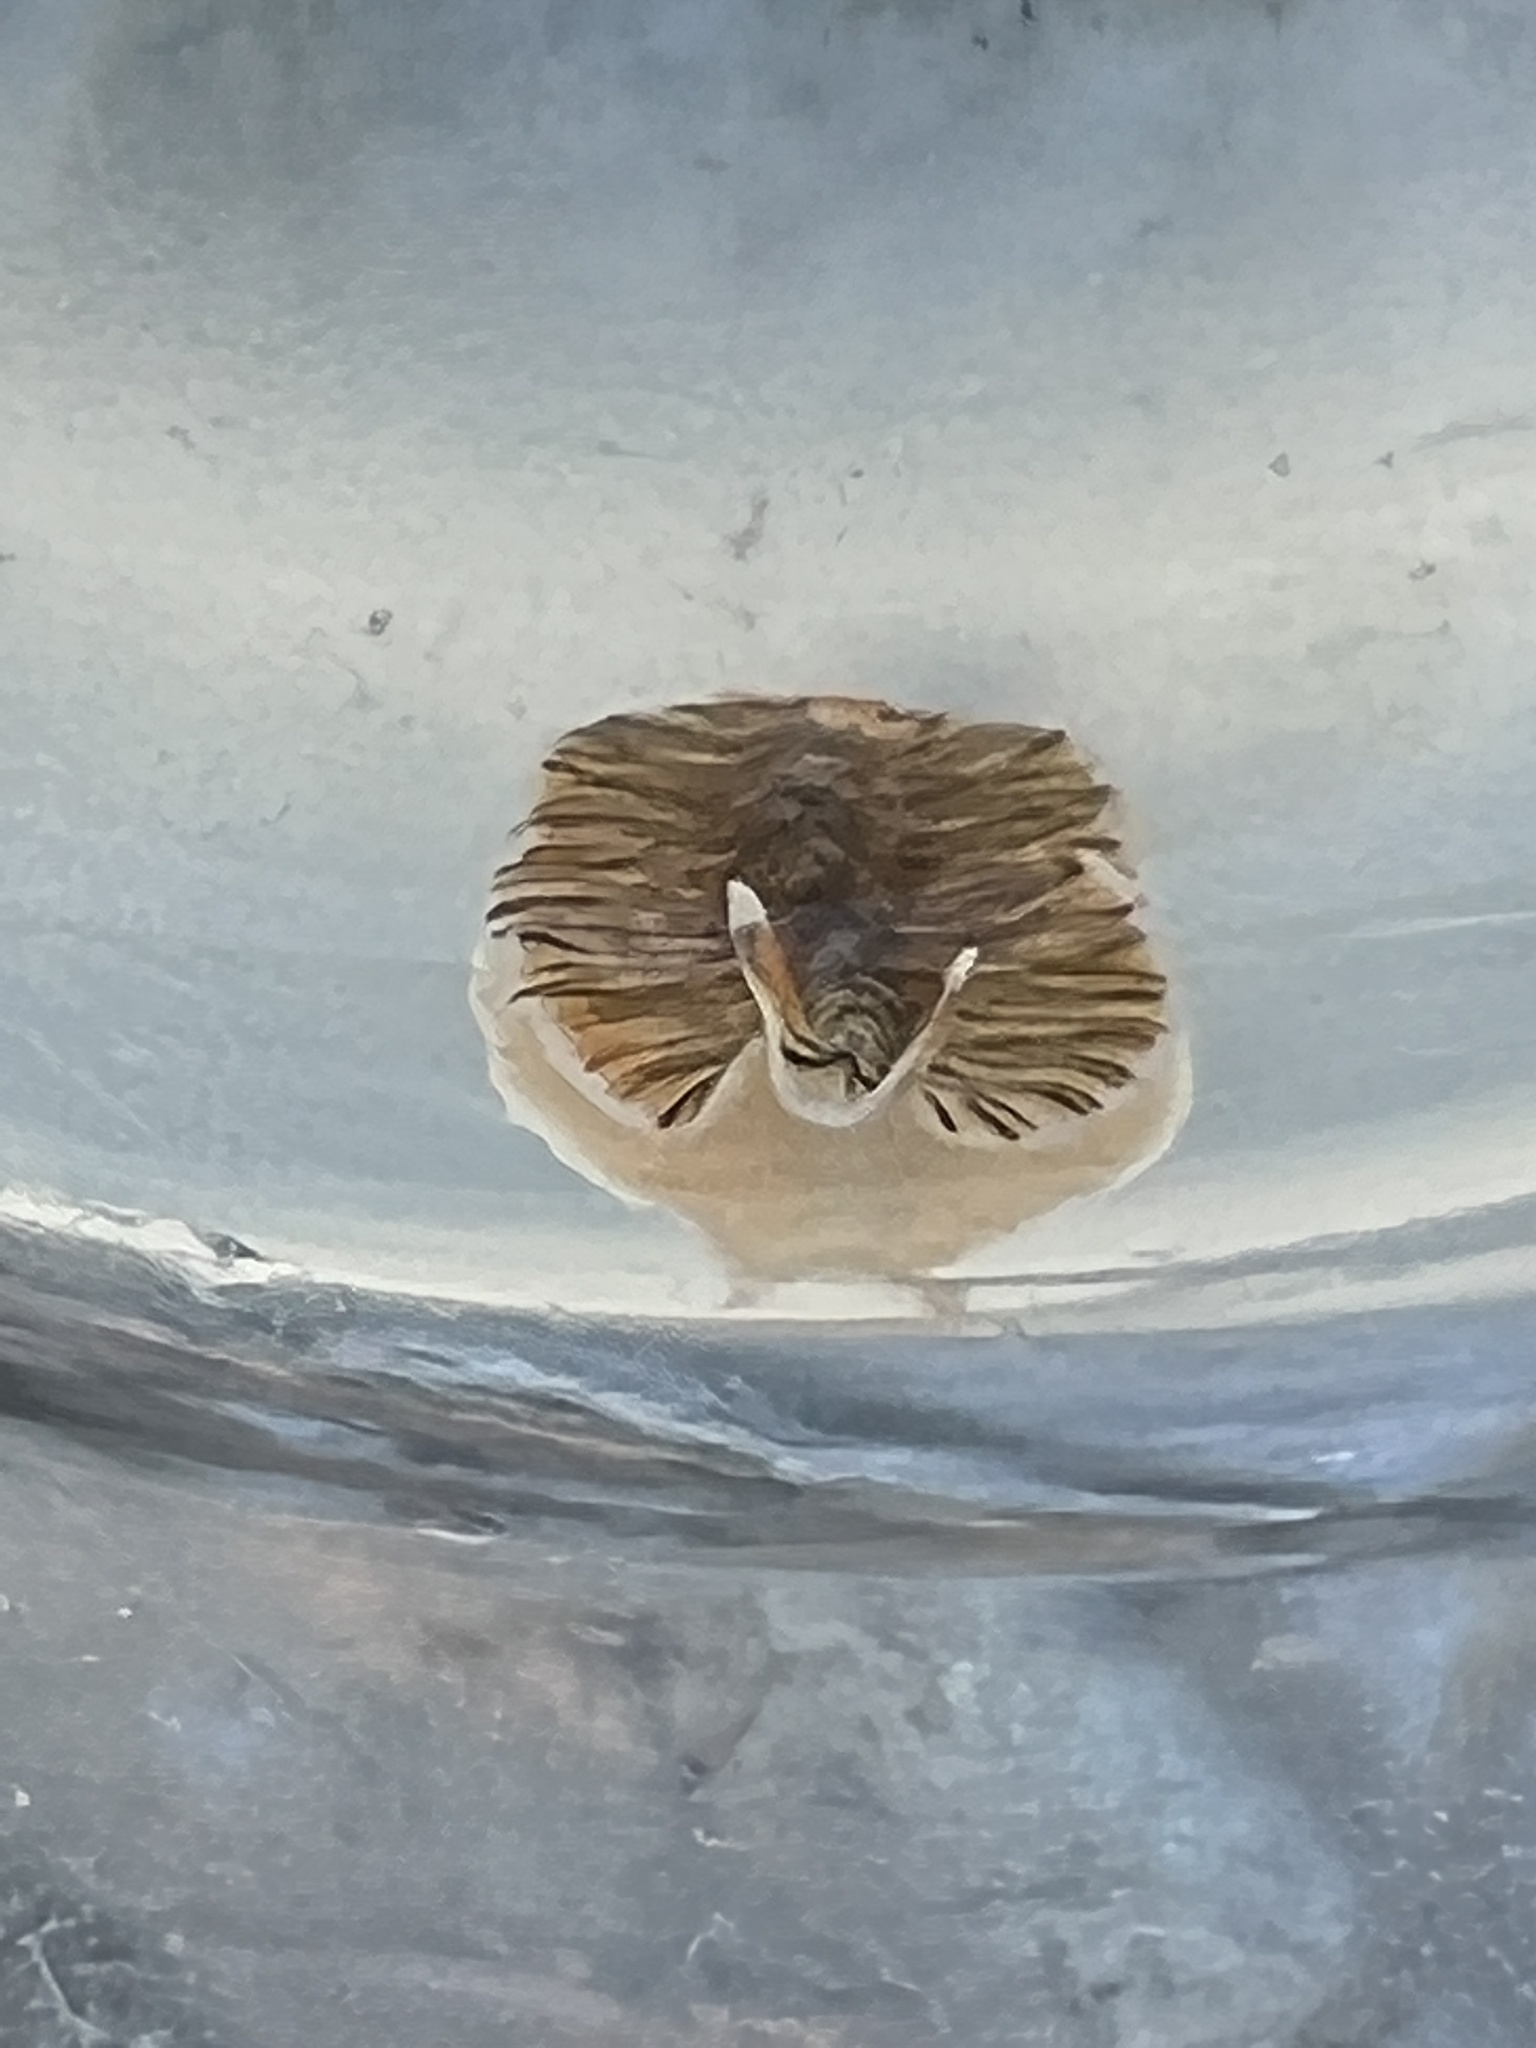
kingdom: Animalia
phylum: Platyhelminthes
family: Euryleptidae
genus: Prostheceraeus
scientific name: Prostheceraeus crozieri
